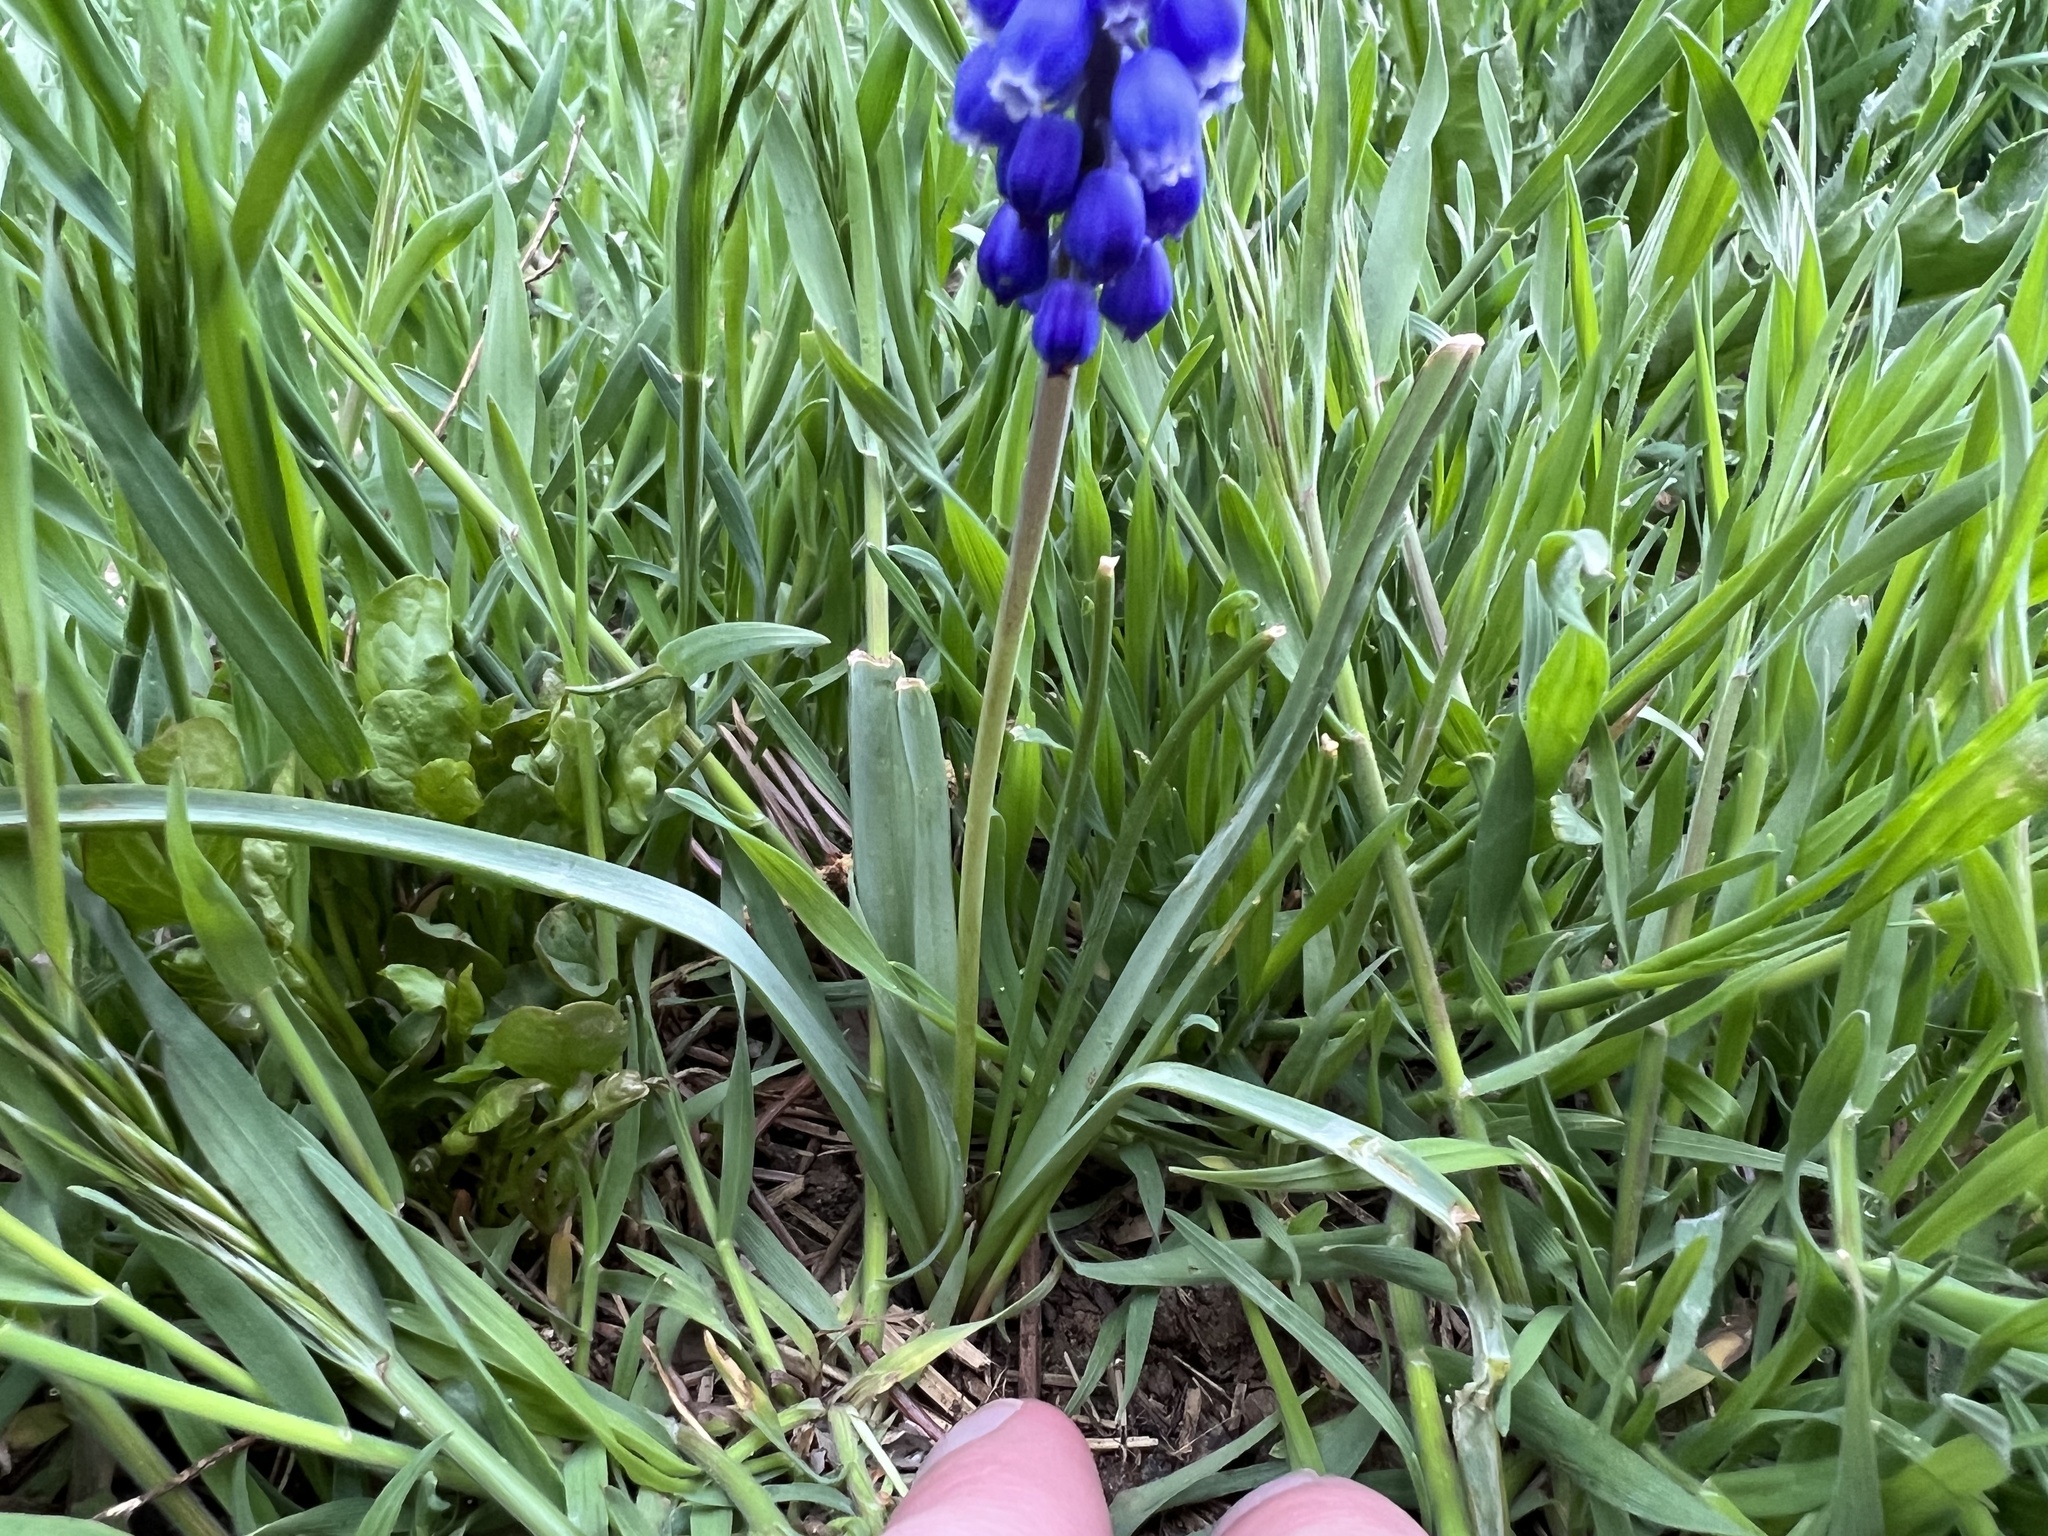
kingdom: Plantae
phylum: Tracheophyta
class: Liliopsida
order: Asparagales
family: Asparagaceae
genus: Muscari
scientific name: Muscari armeniacum
